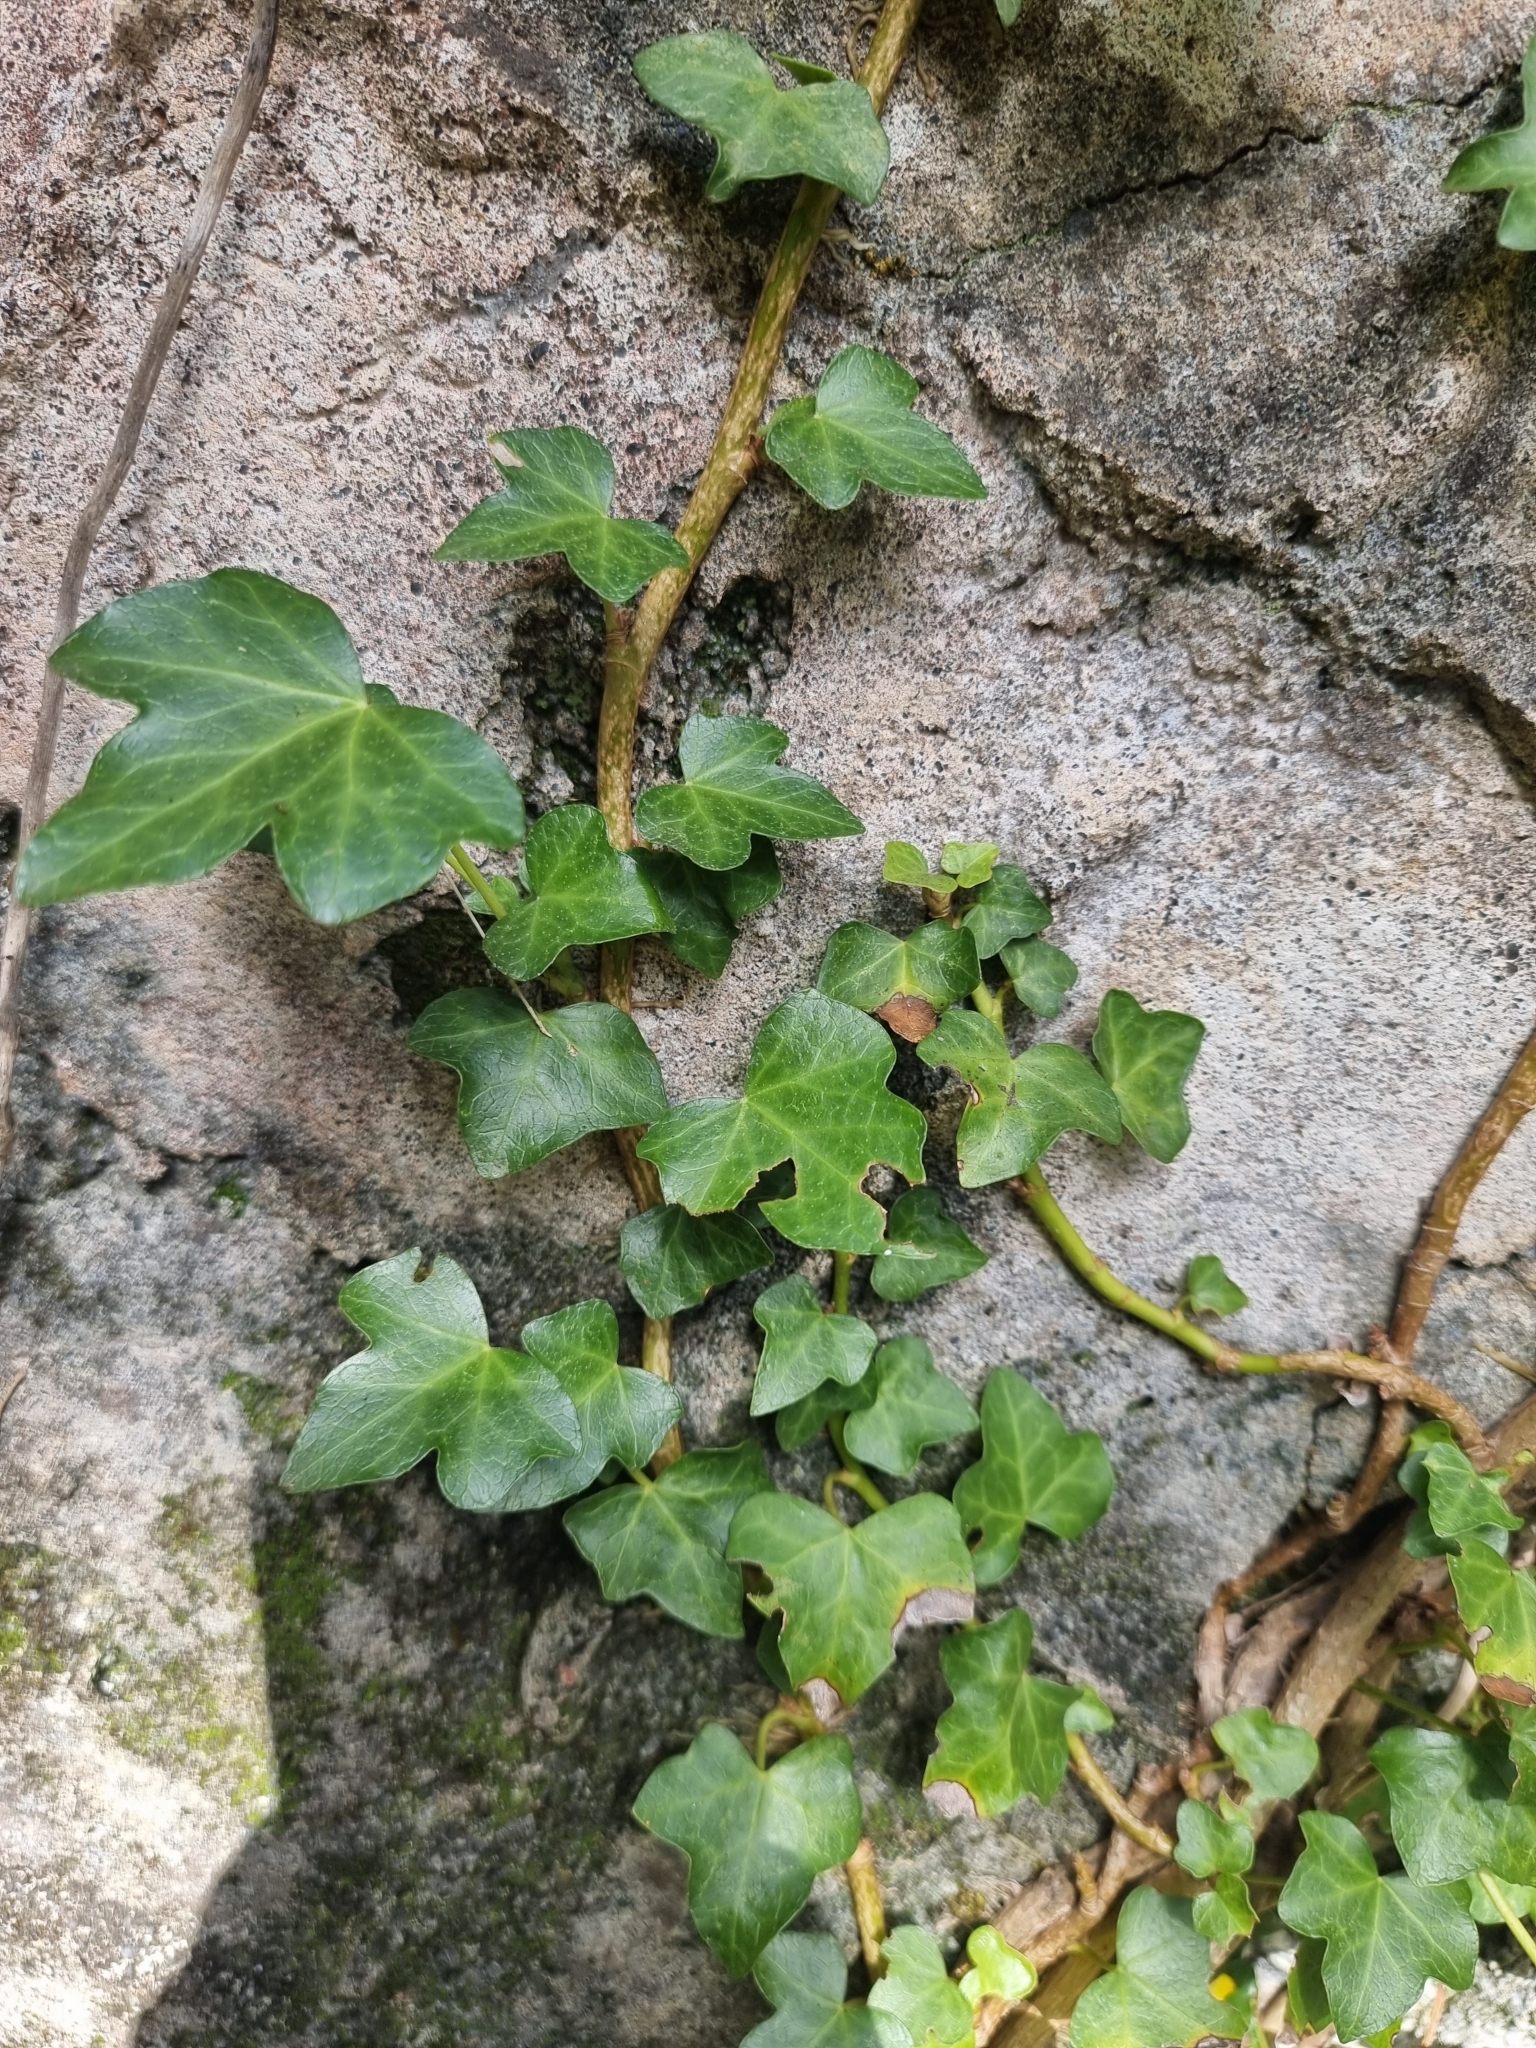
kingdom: Plantae
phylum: Tracheophyta
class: Magnoliopsida
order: Apiales
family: Araliaceae
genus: Hedera
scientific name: Hedera maderensis
